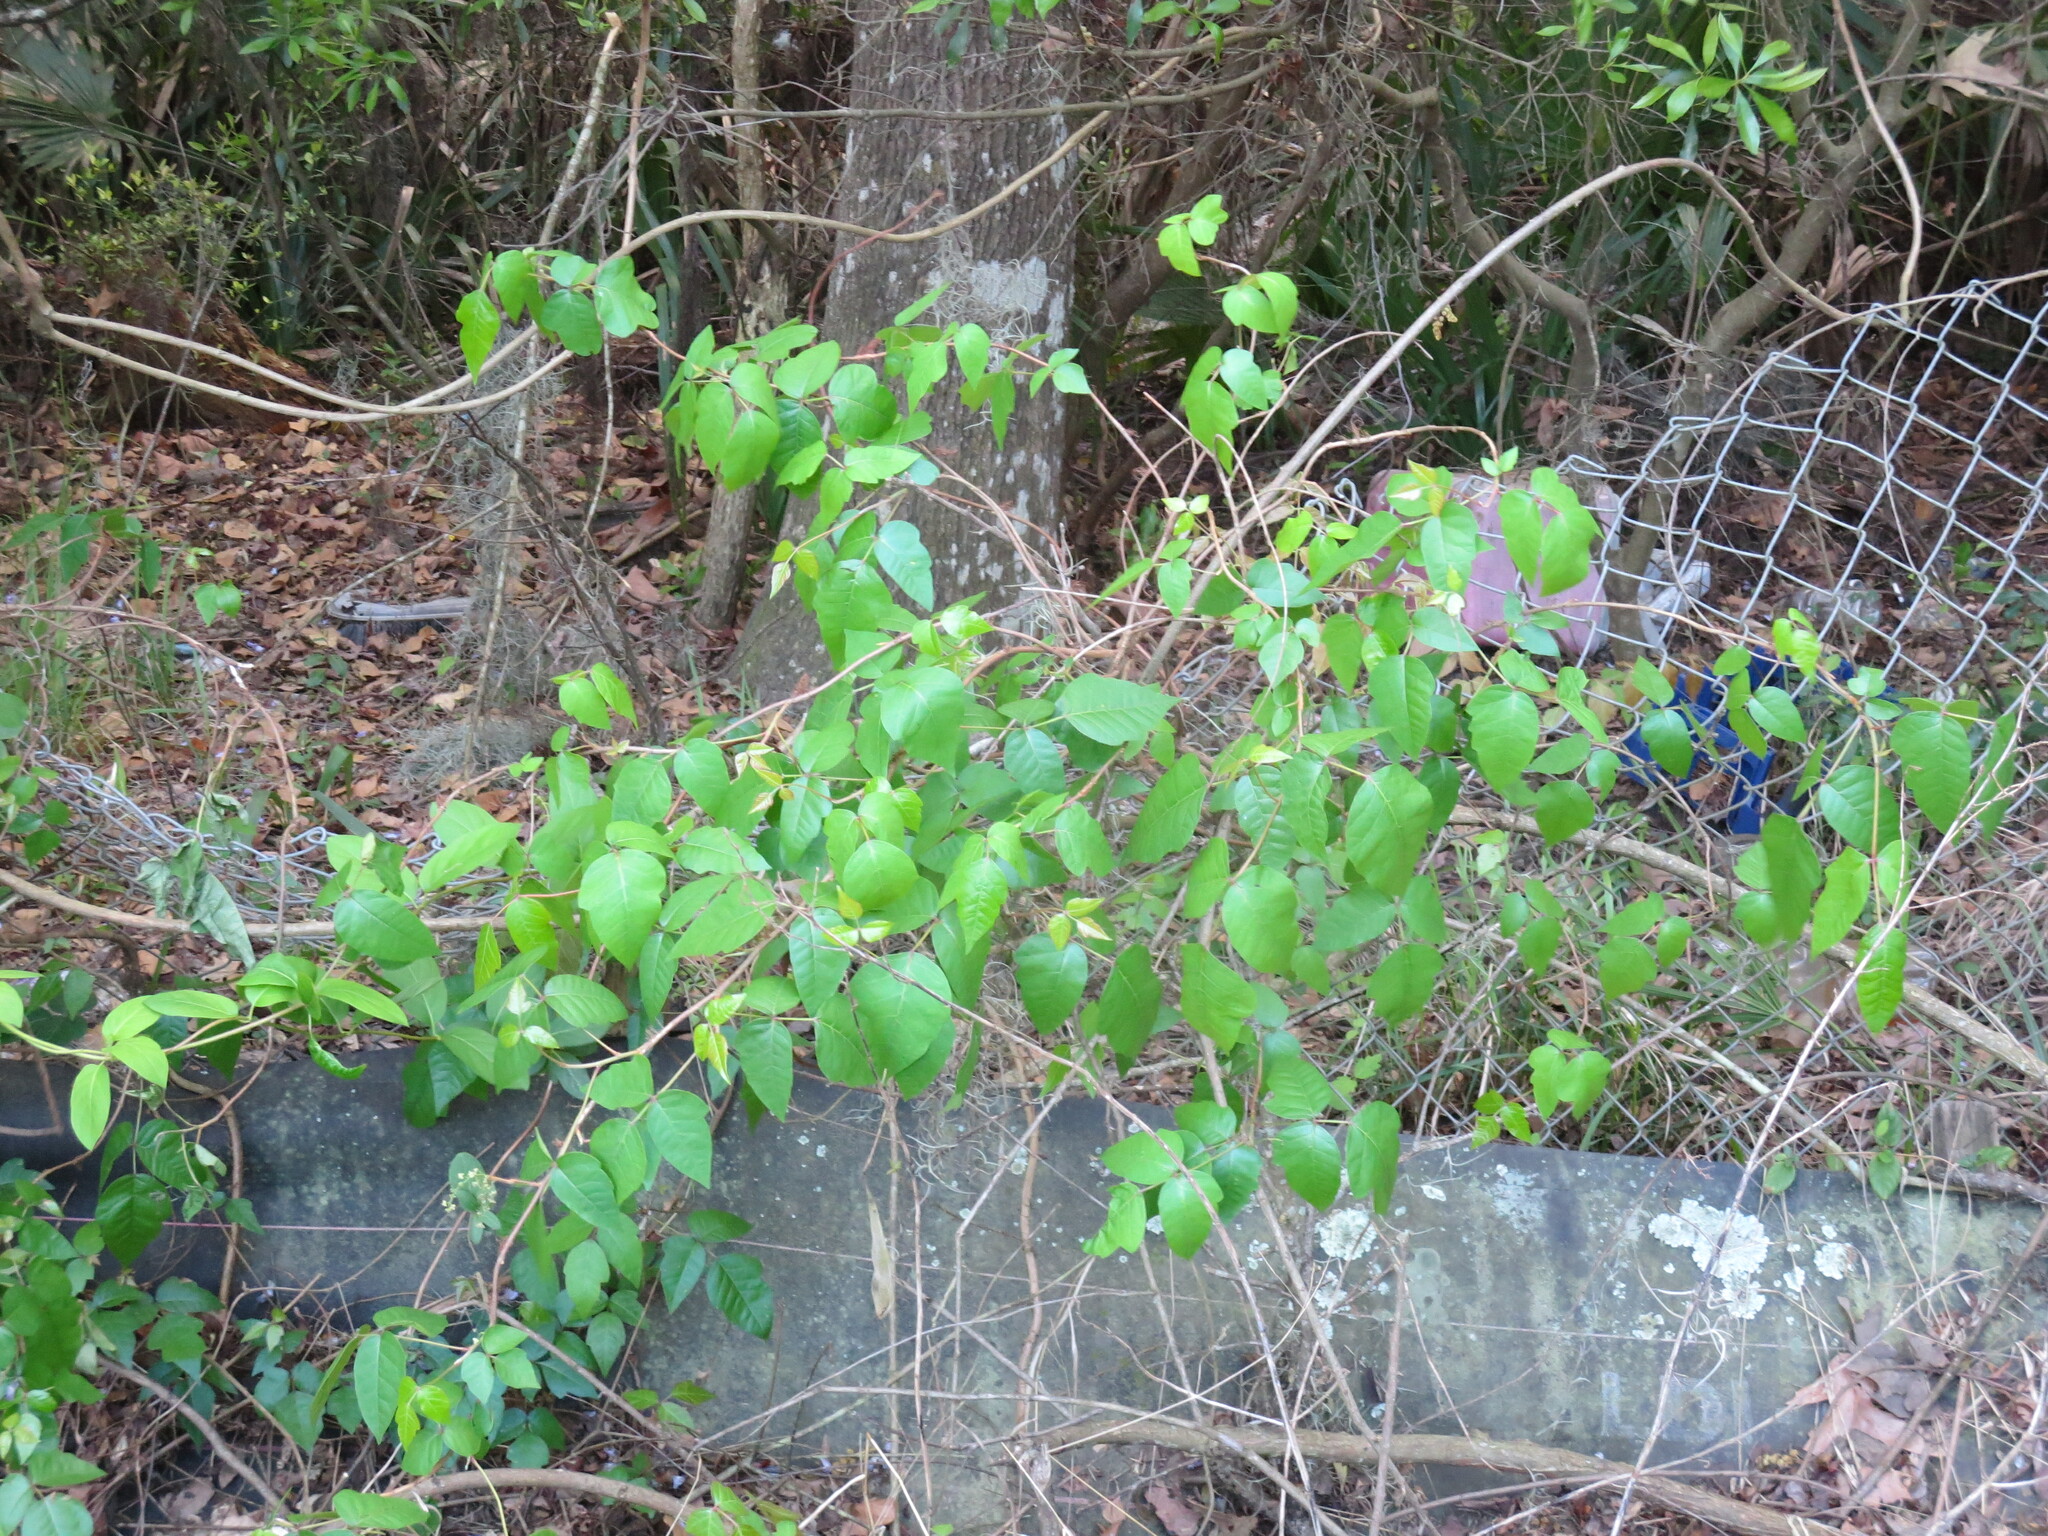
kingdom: Plantae
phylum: Tracheophyta
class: Magnoliopsida
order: Sapindales
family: Anacardiaceae
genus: Toxicodendron
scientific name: Toxicodendron radicans
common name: Poison ivy
